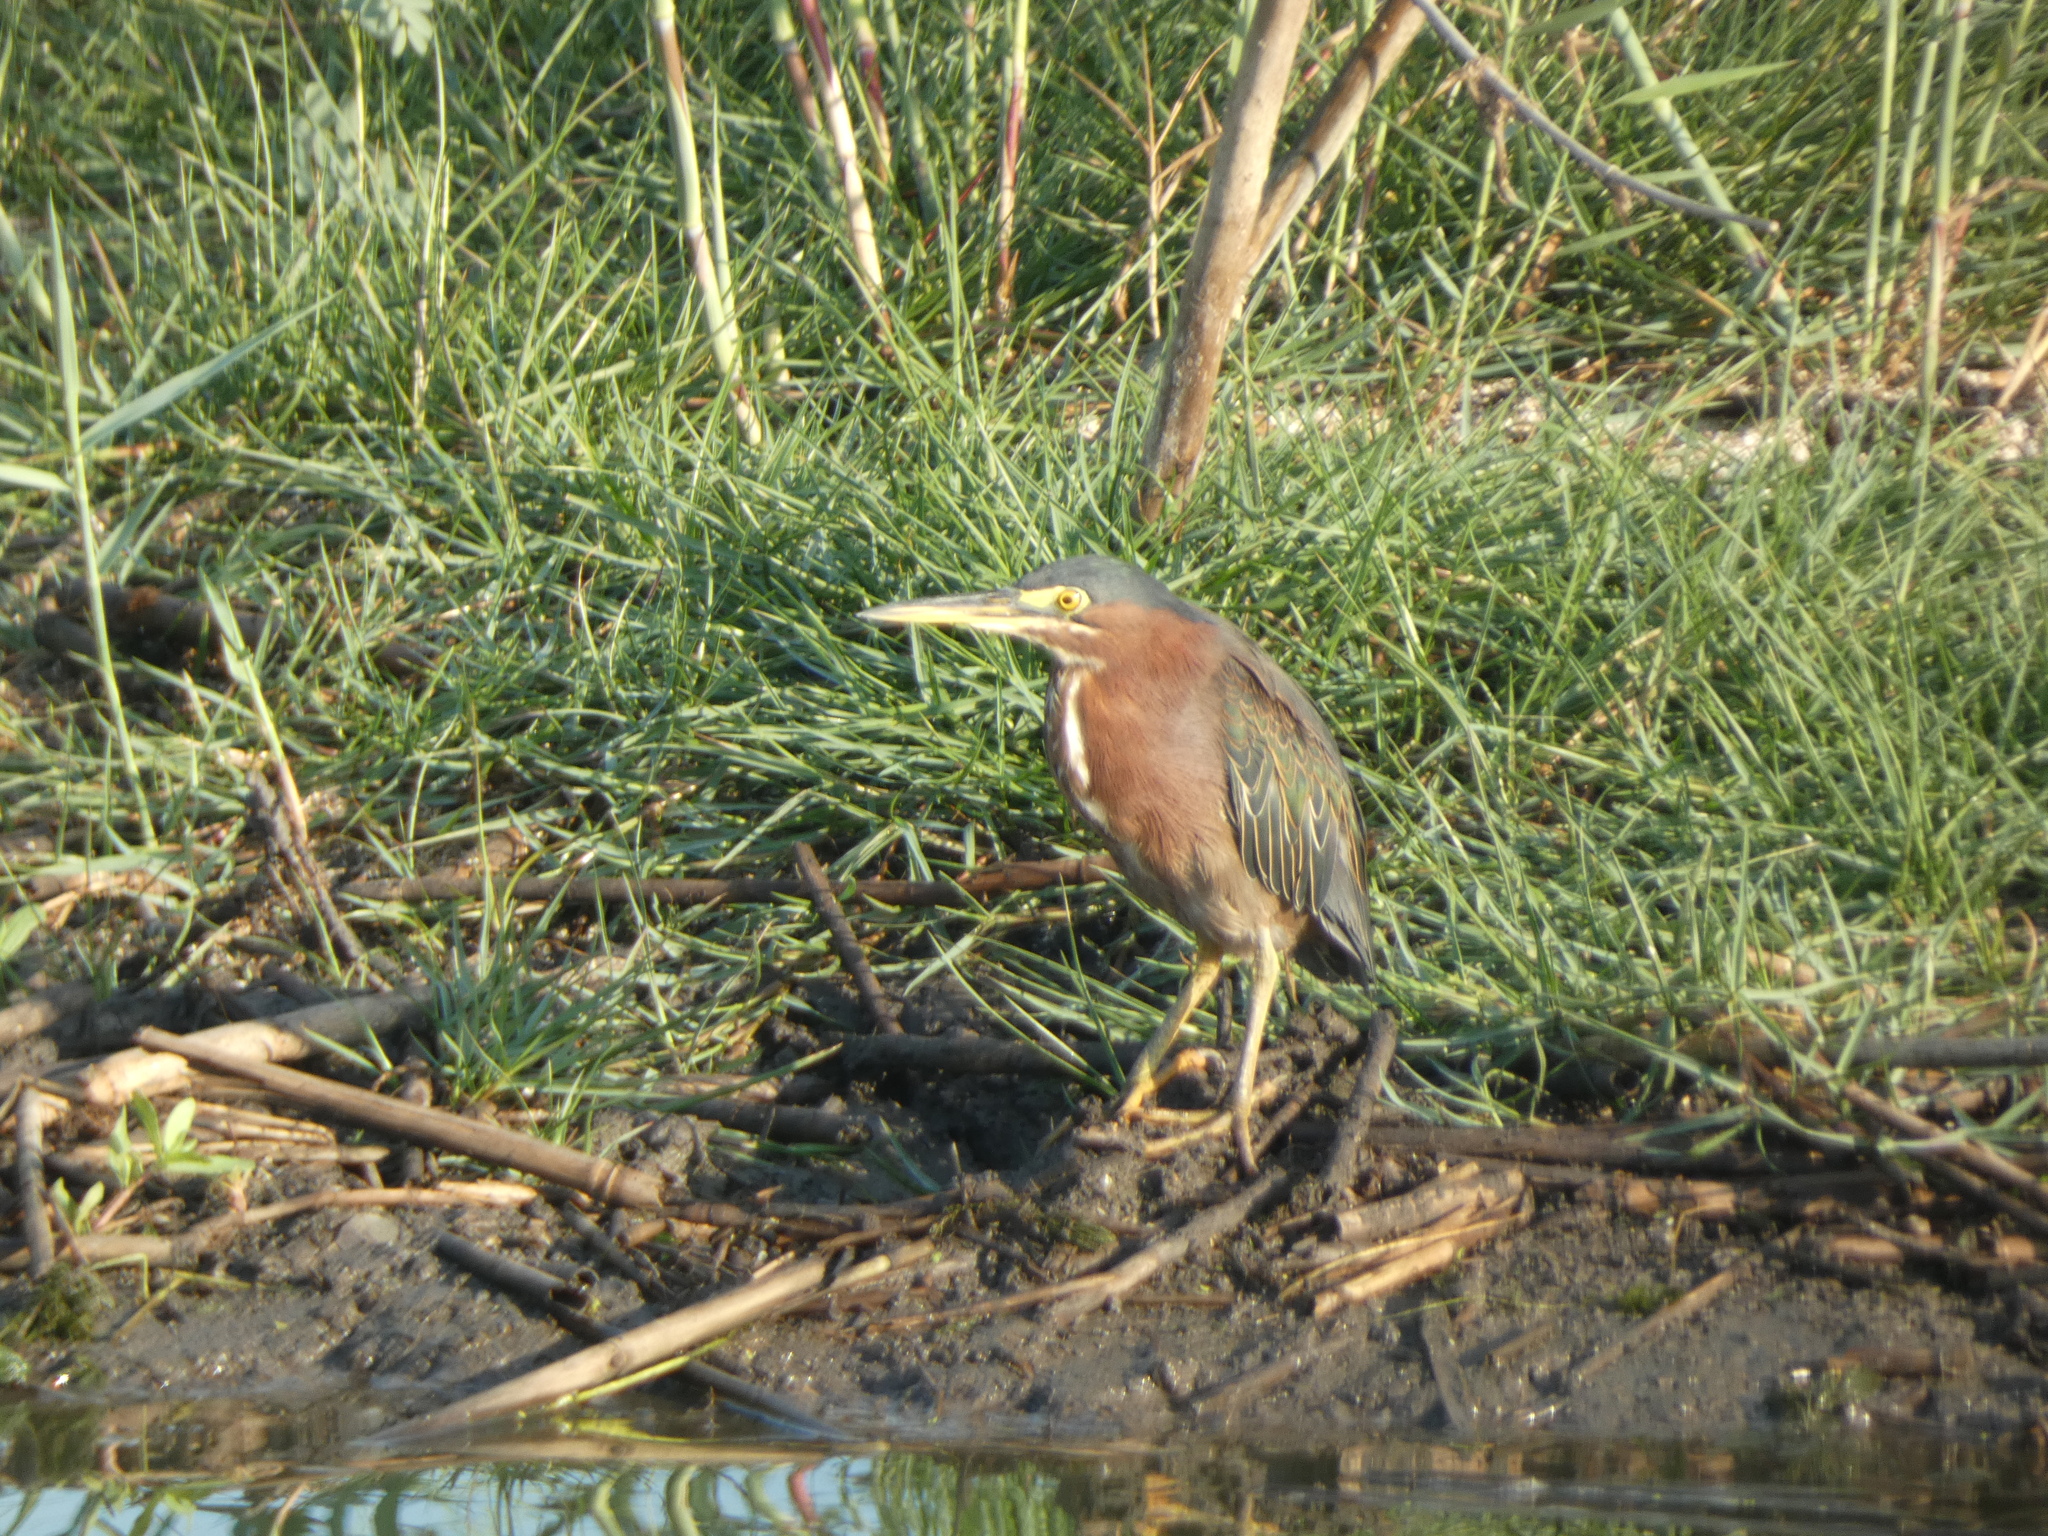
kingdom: Animalia
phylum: Chordata
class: Aves
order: Pelecaniformes
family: Ardeidae
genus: Butorides
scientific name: Butorides virescens
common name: Green heron
